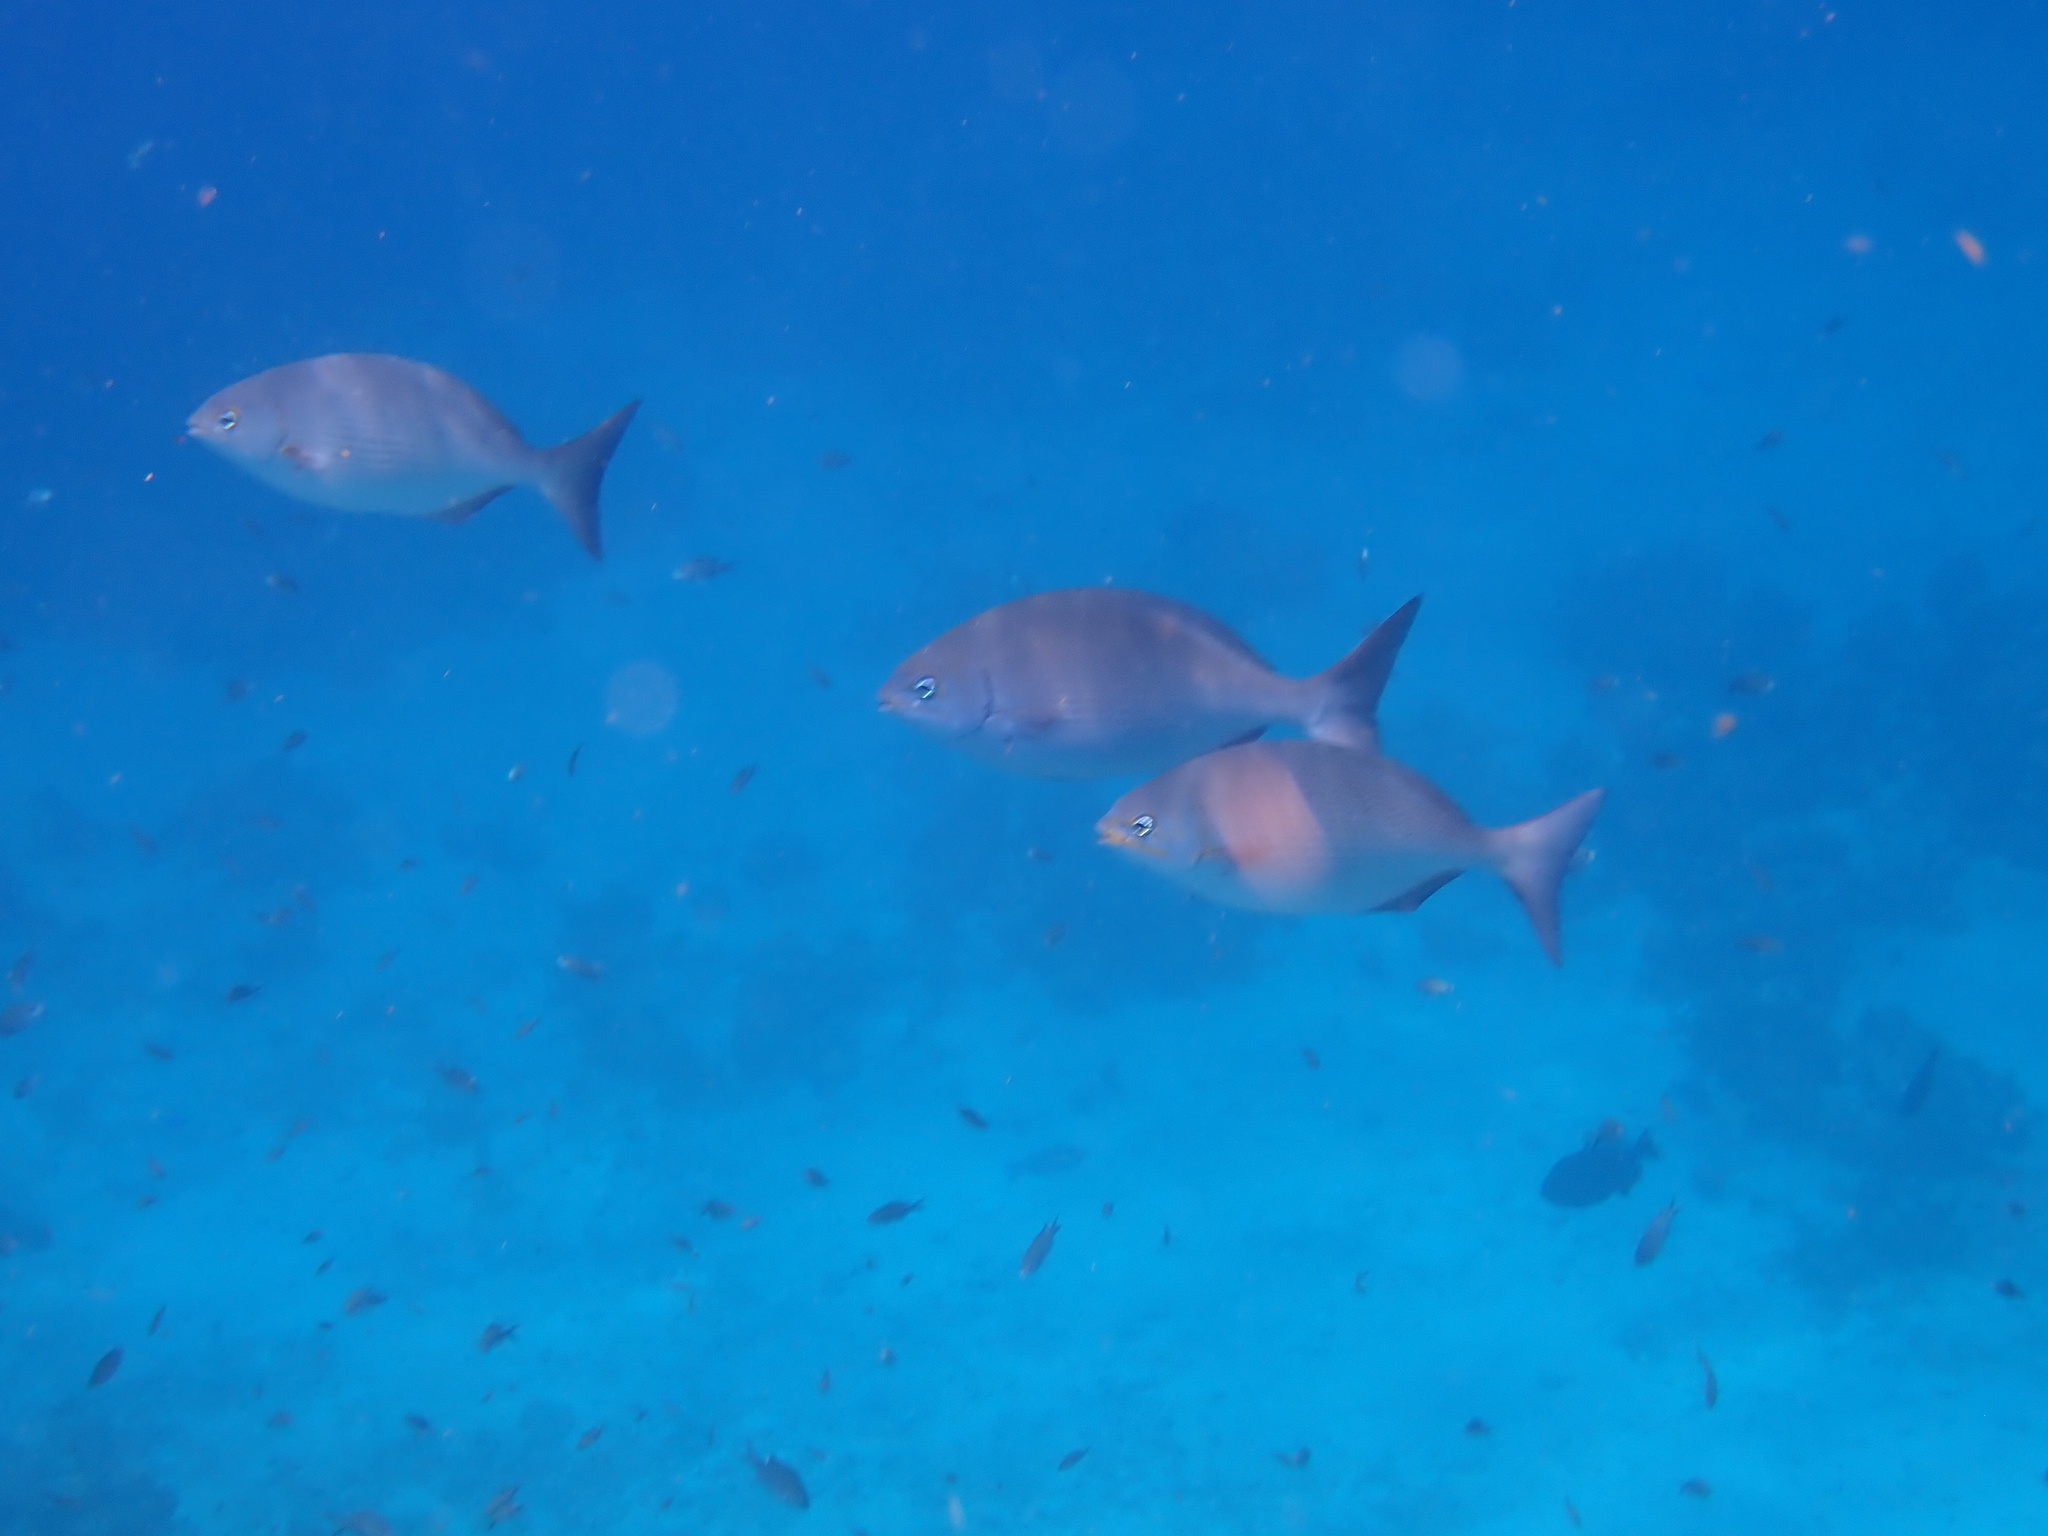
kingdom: Animalia
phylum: Chordata
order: Perciformes
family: Kyphosidae
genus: Kyphosus
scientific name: Kyphosus vaigiensis
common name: Brassy chub
